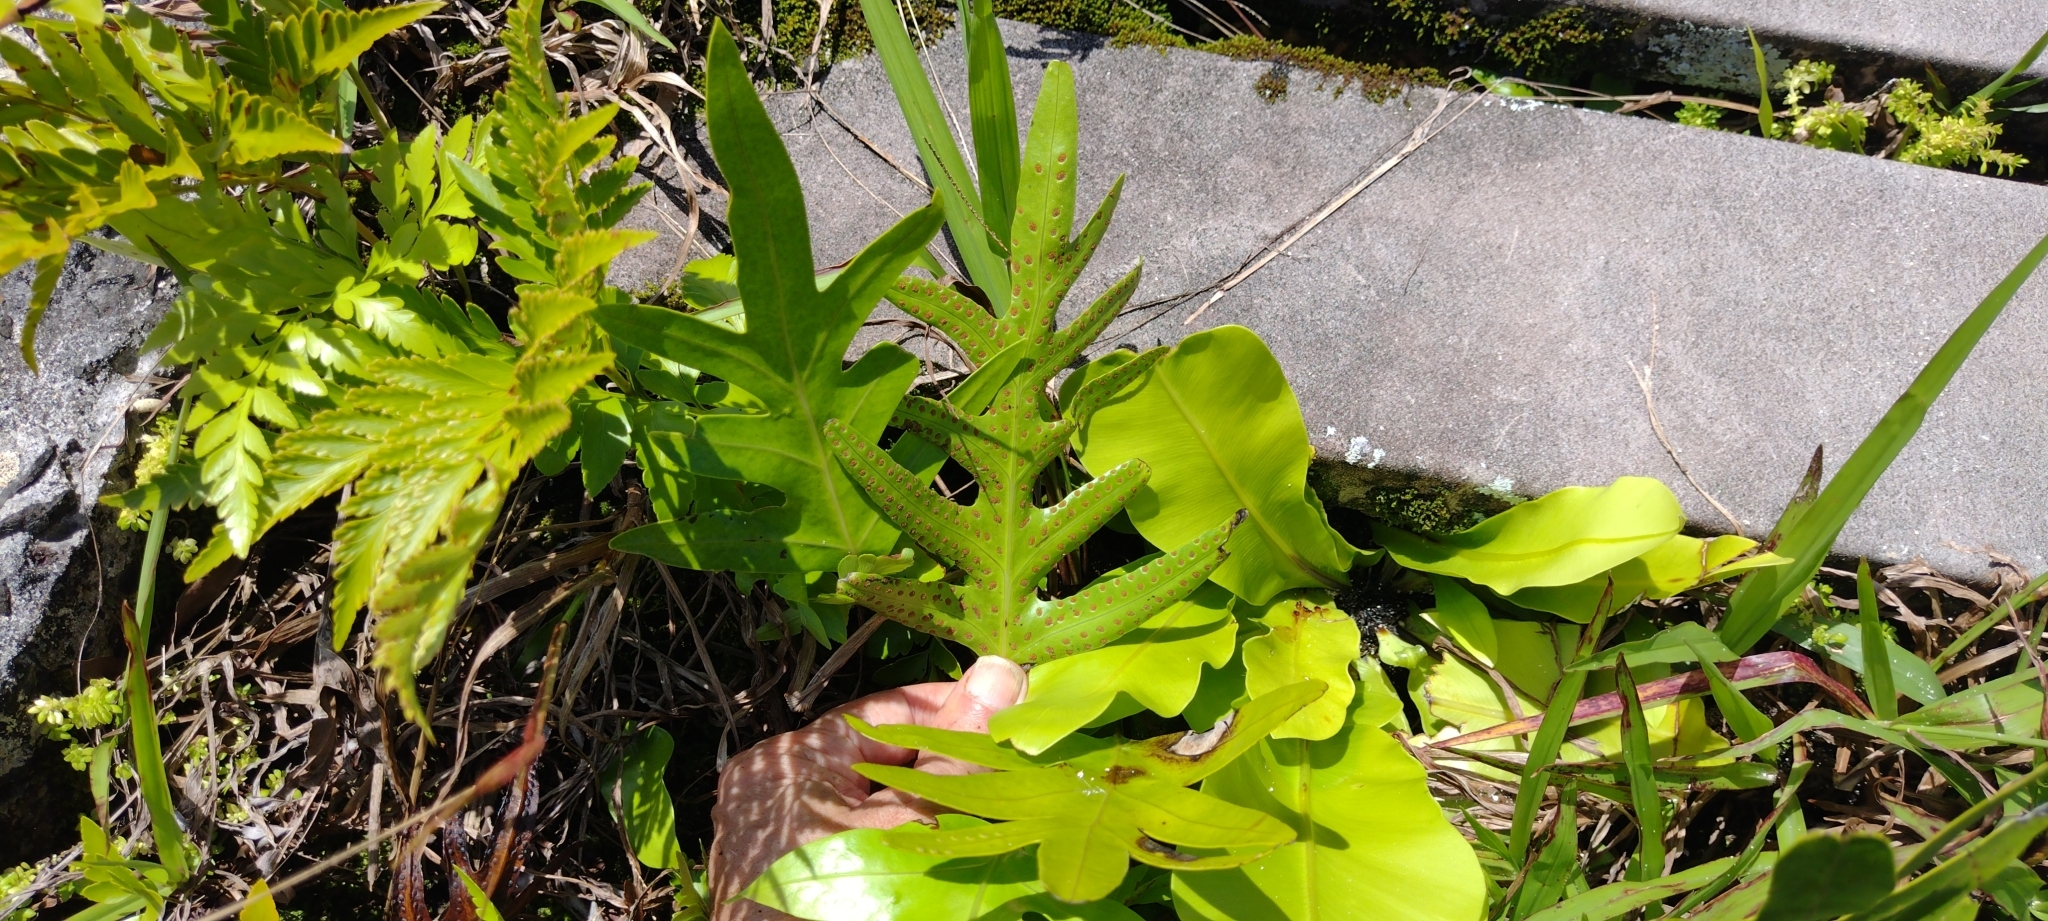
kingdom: Plantae
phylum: Tracheophyta
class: Polypodiopsida
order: Polypodiales
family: Polypodiaceae
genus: Microsorum
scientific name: Microsorum scolopendria
